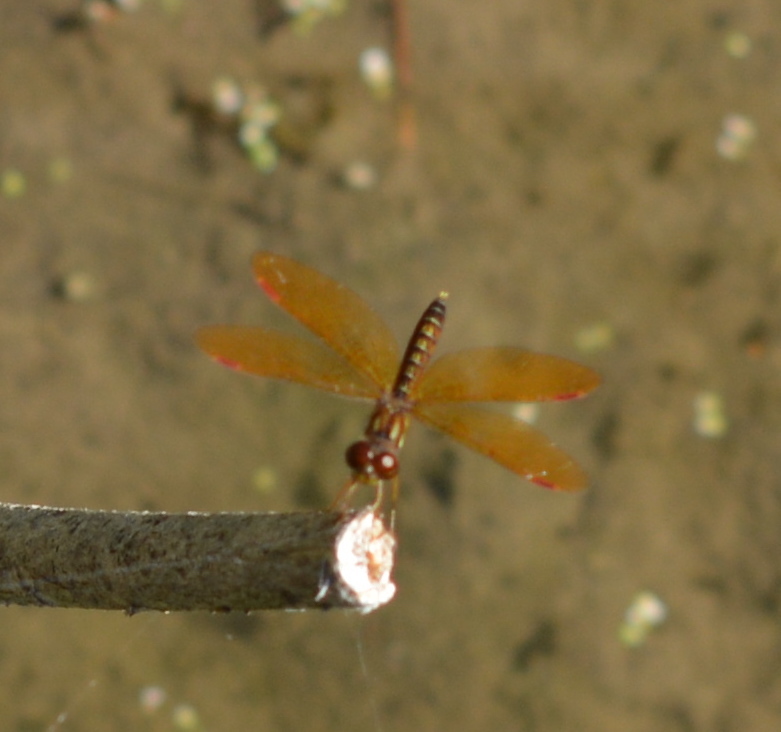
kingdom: Animalia
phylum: Arthropoda
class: Insecta
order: Odonata
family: Libellulidae
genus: Perithemis
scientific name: Perithemis tenera
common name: Eastern amberwing
